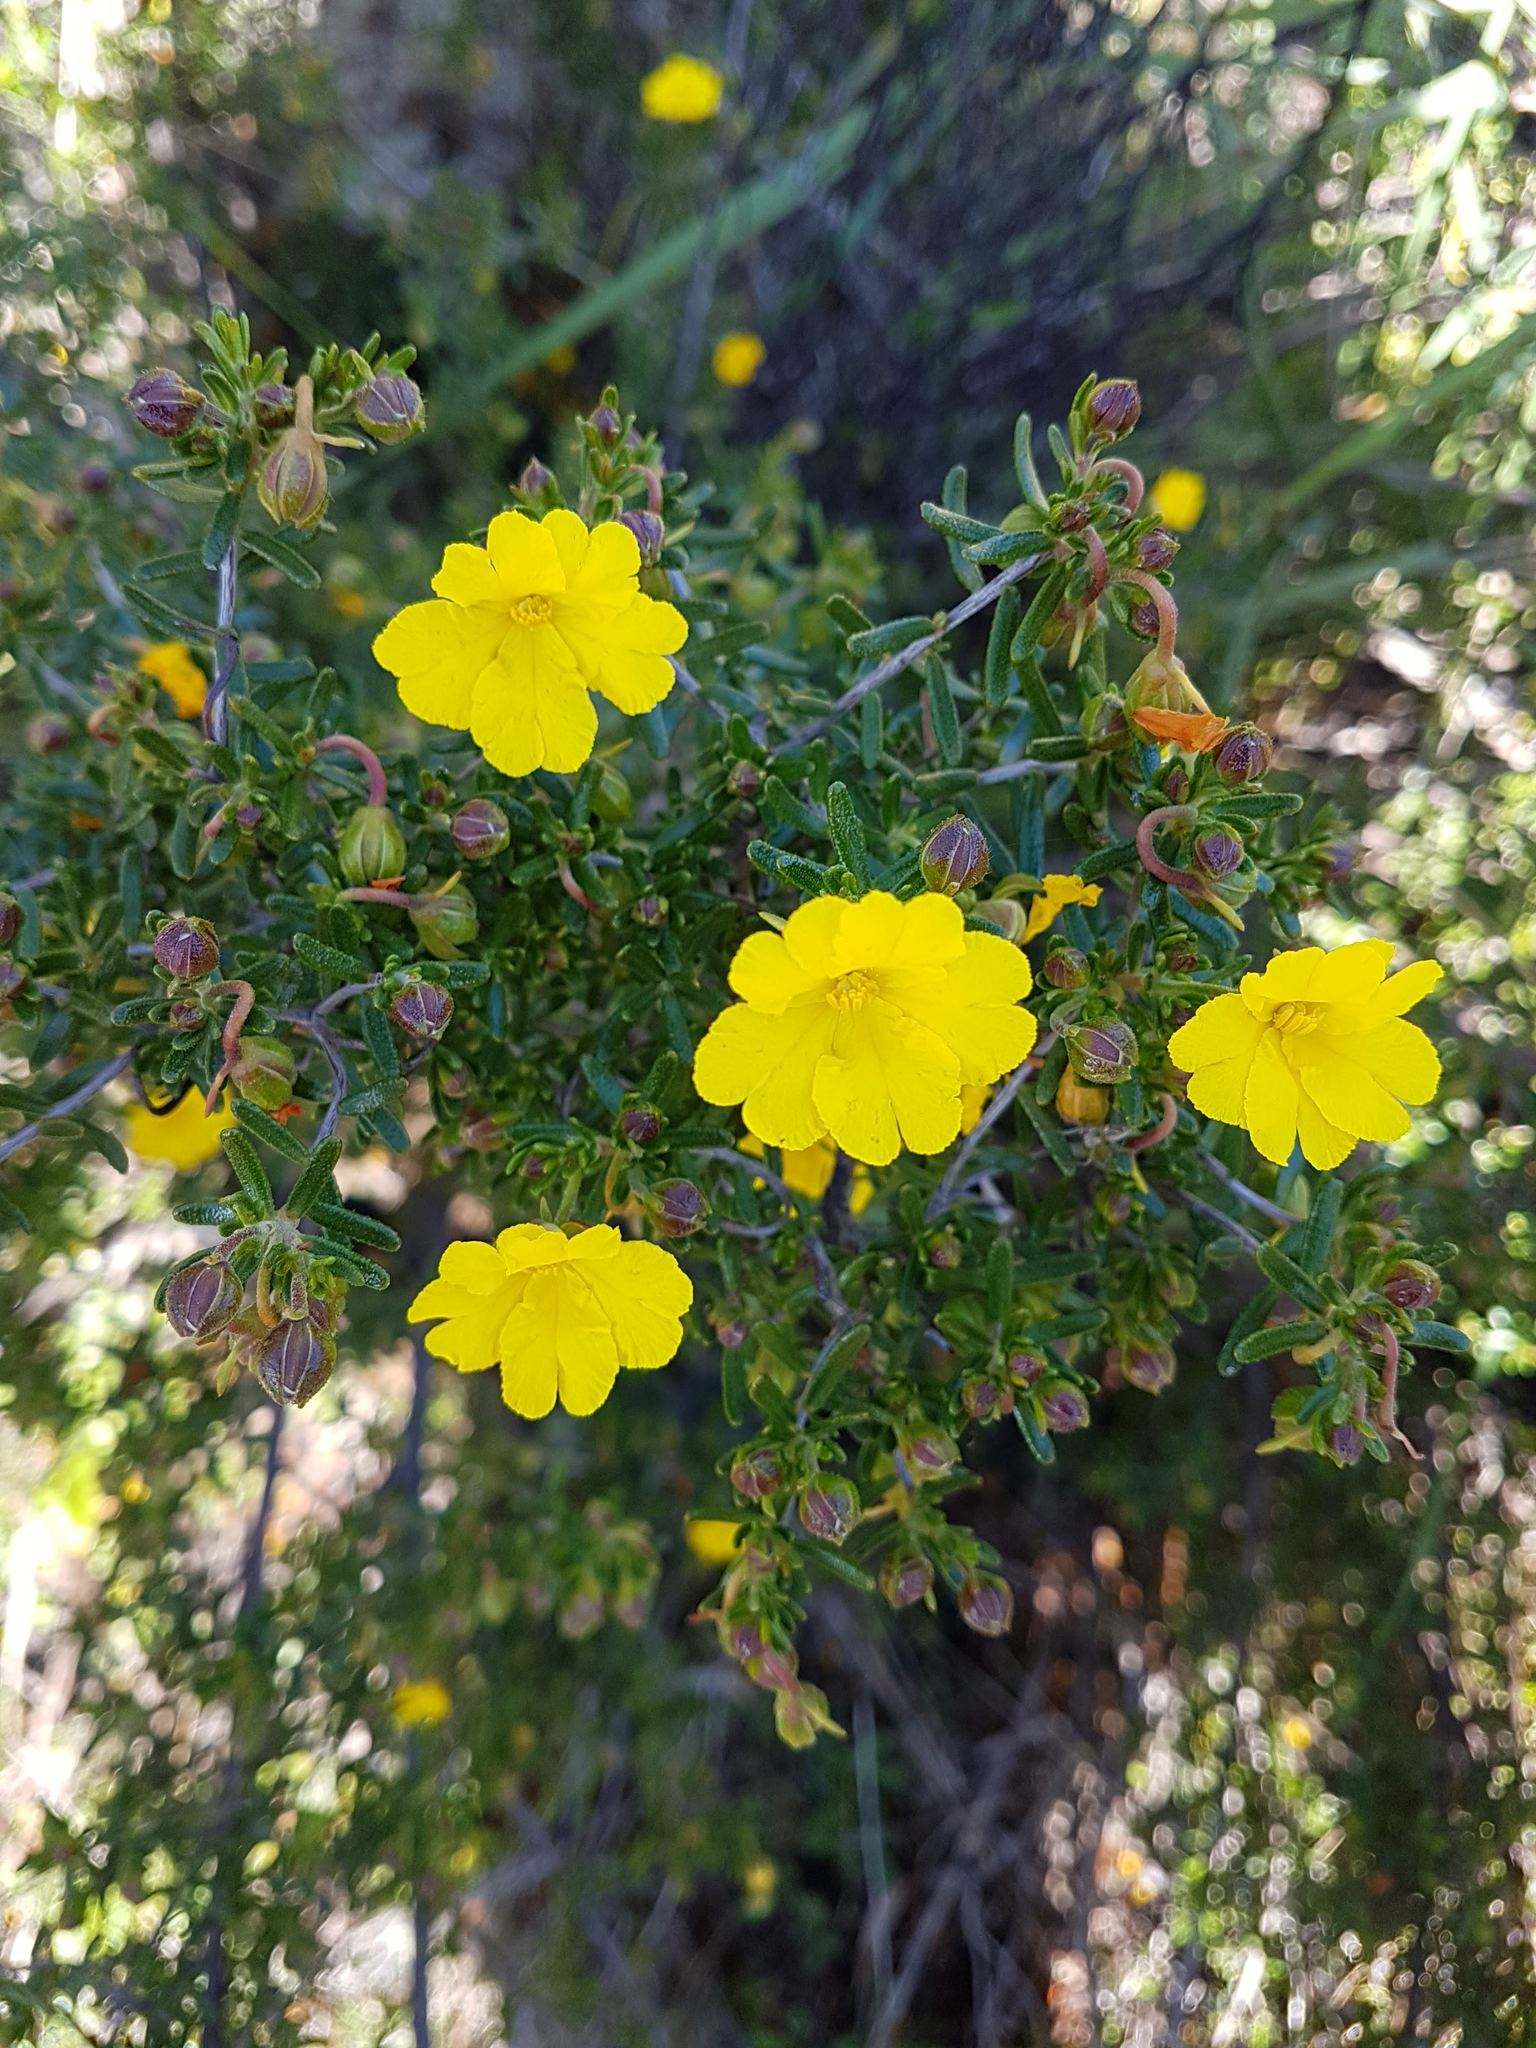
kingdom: Plantae
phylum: Tracheophyta
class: Magnoliopsida
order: Dilleniales
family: Dilleniaceae
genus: Hibbertia
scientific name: Hibbertia hypericoides
